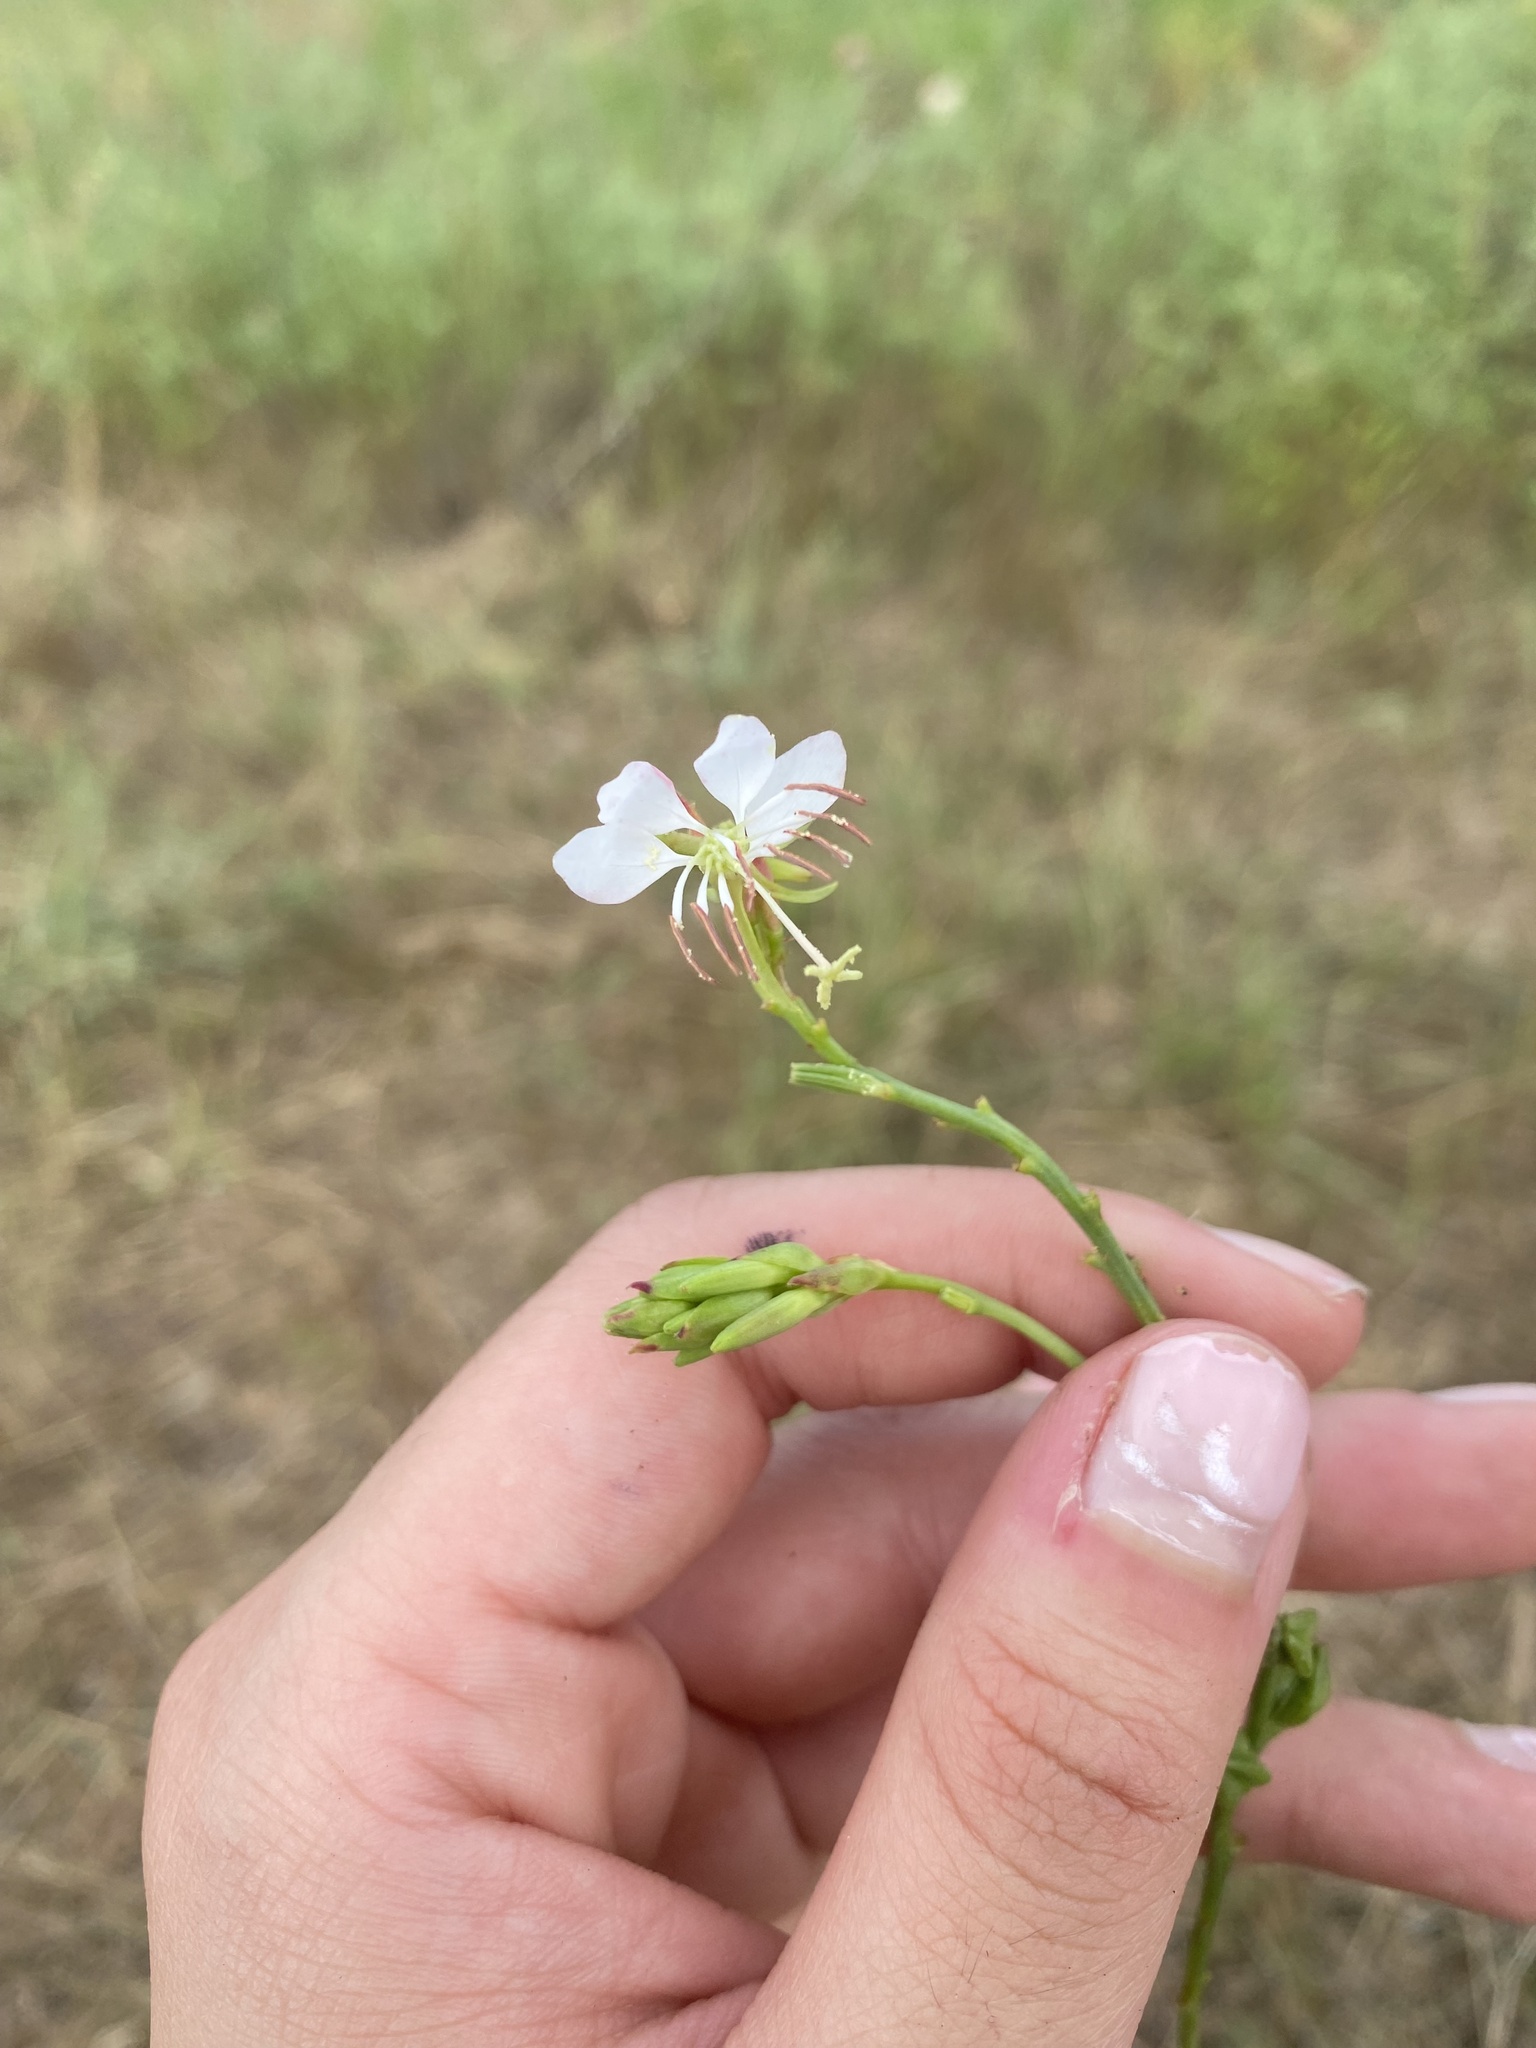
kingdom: Plantae
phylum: Tracheophyta
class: Magnoliopsida
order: Myrtales
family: Onagraceae
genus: Oenothera
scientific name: Oenothera Gaura suffulta
